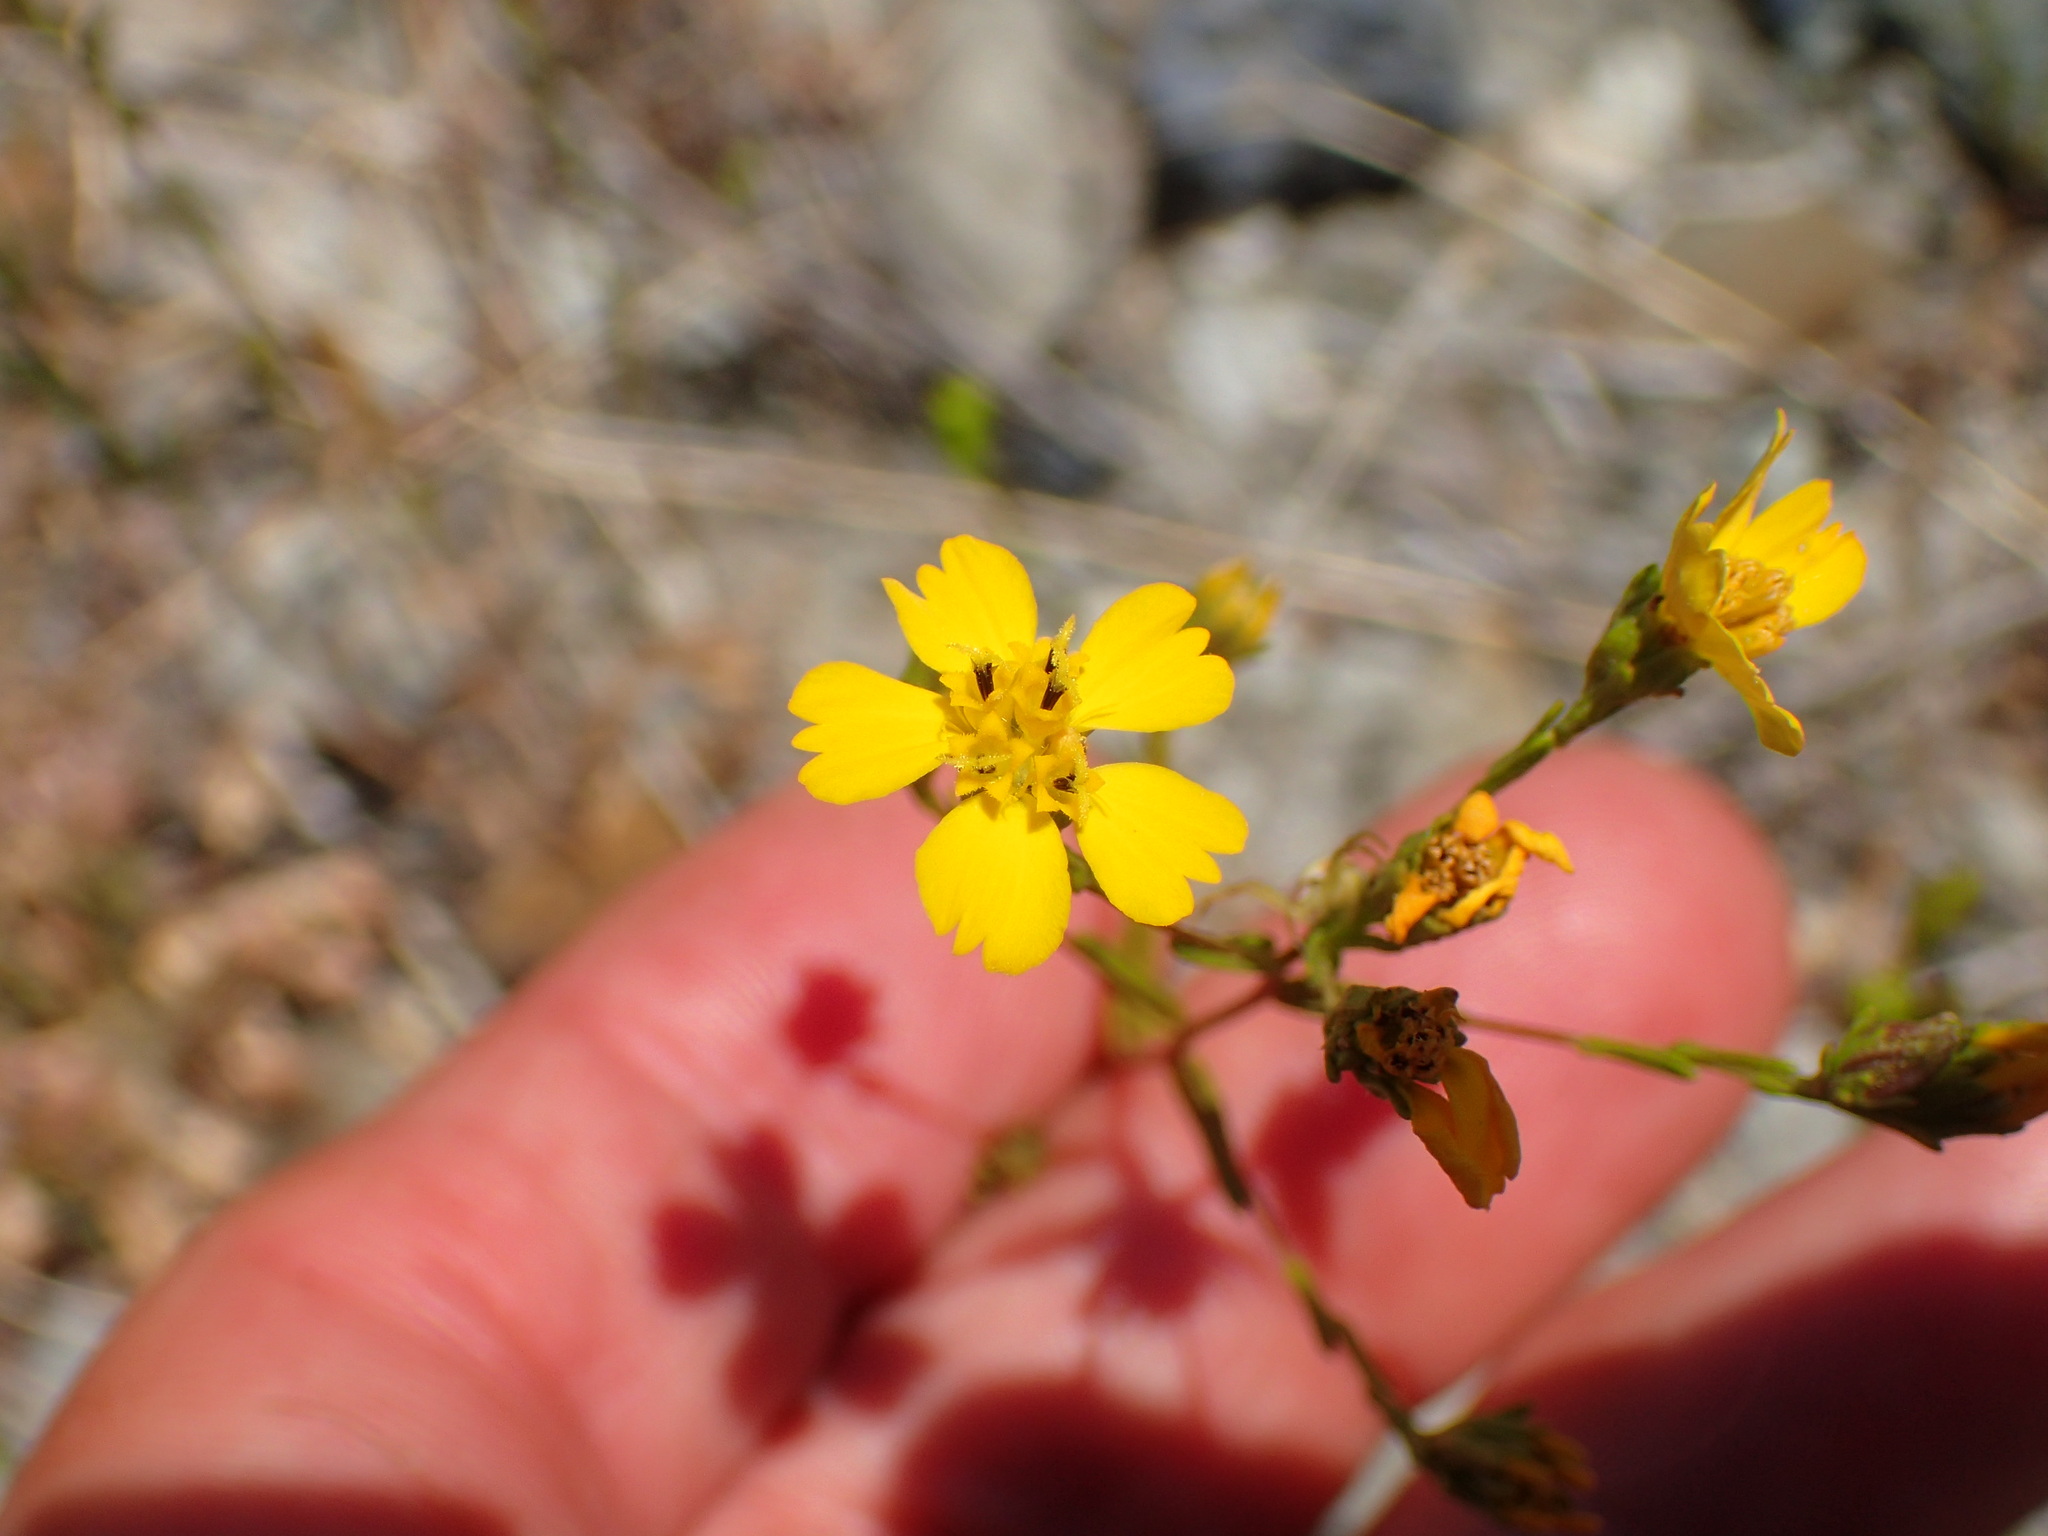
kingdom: Plantae
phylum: Tracheophyta
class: Magnoliopsida
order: Asterales
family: Asteraceae
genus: Deinandra
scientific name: Deinandra fasciculata
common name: Clustered tarweed
